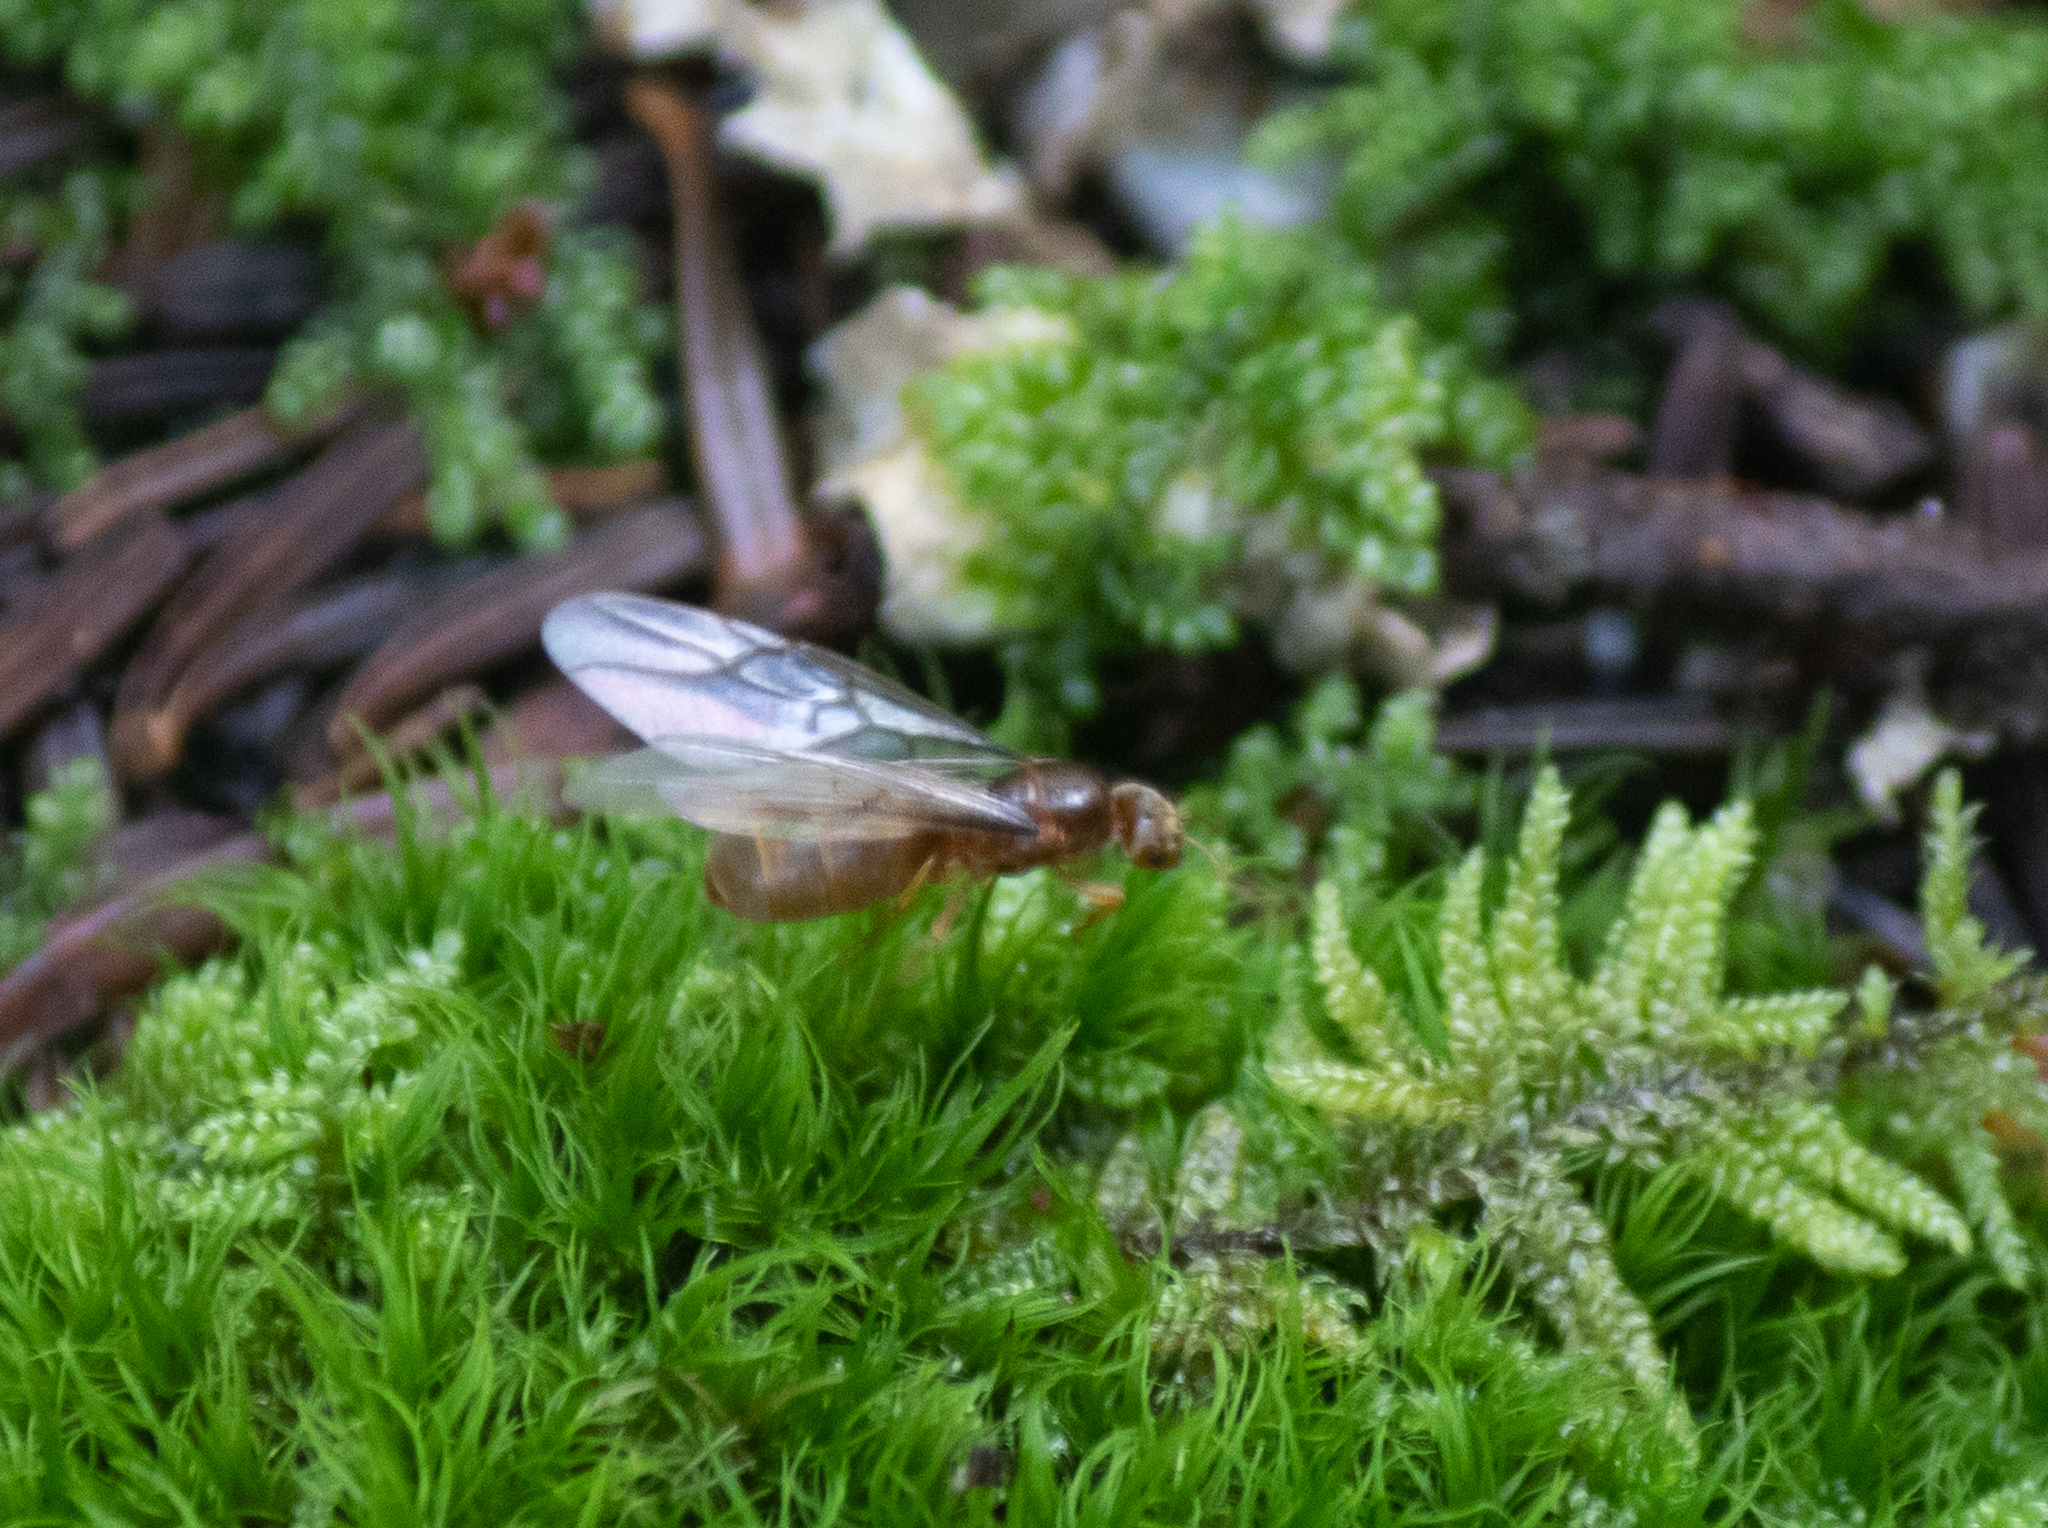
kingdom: Animalia
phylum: Arthropoda
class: Insecta
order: Hymenoptera
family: Formicidae
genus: Lasius
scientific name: Lasius nearcticus
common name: New world fuzzy ant
